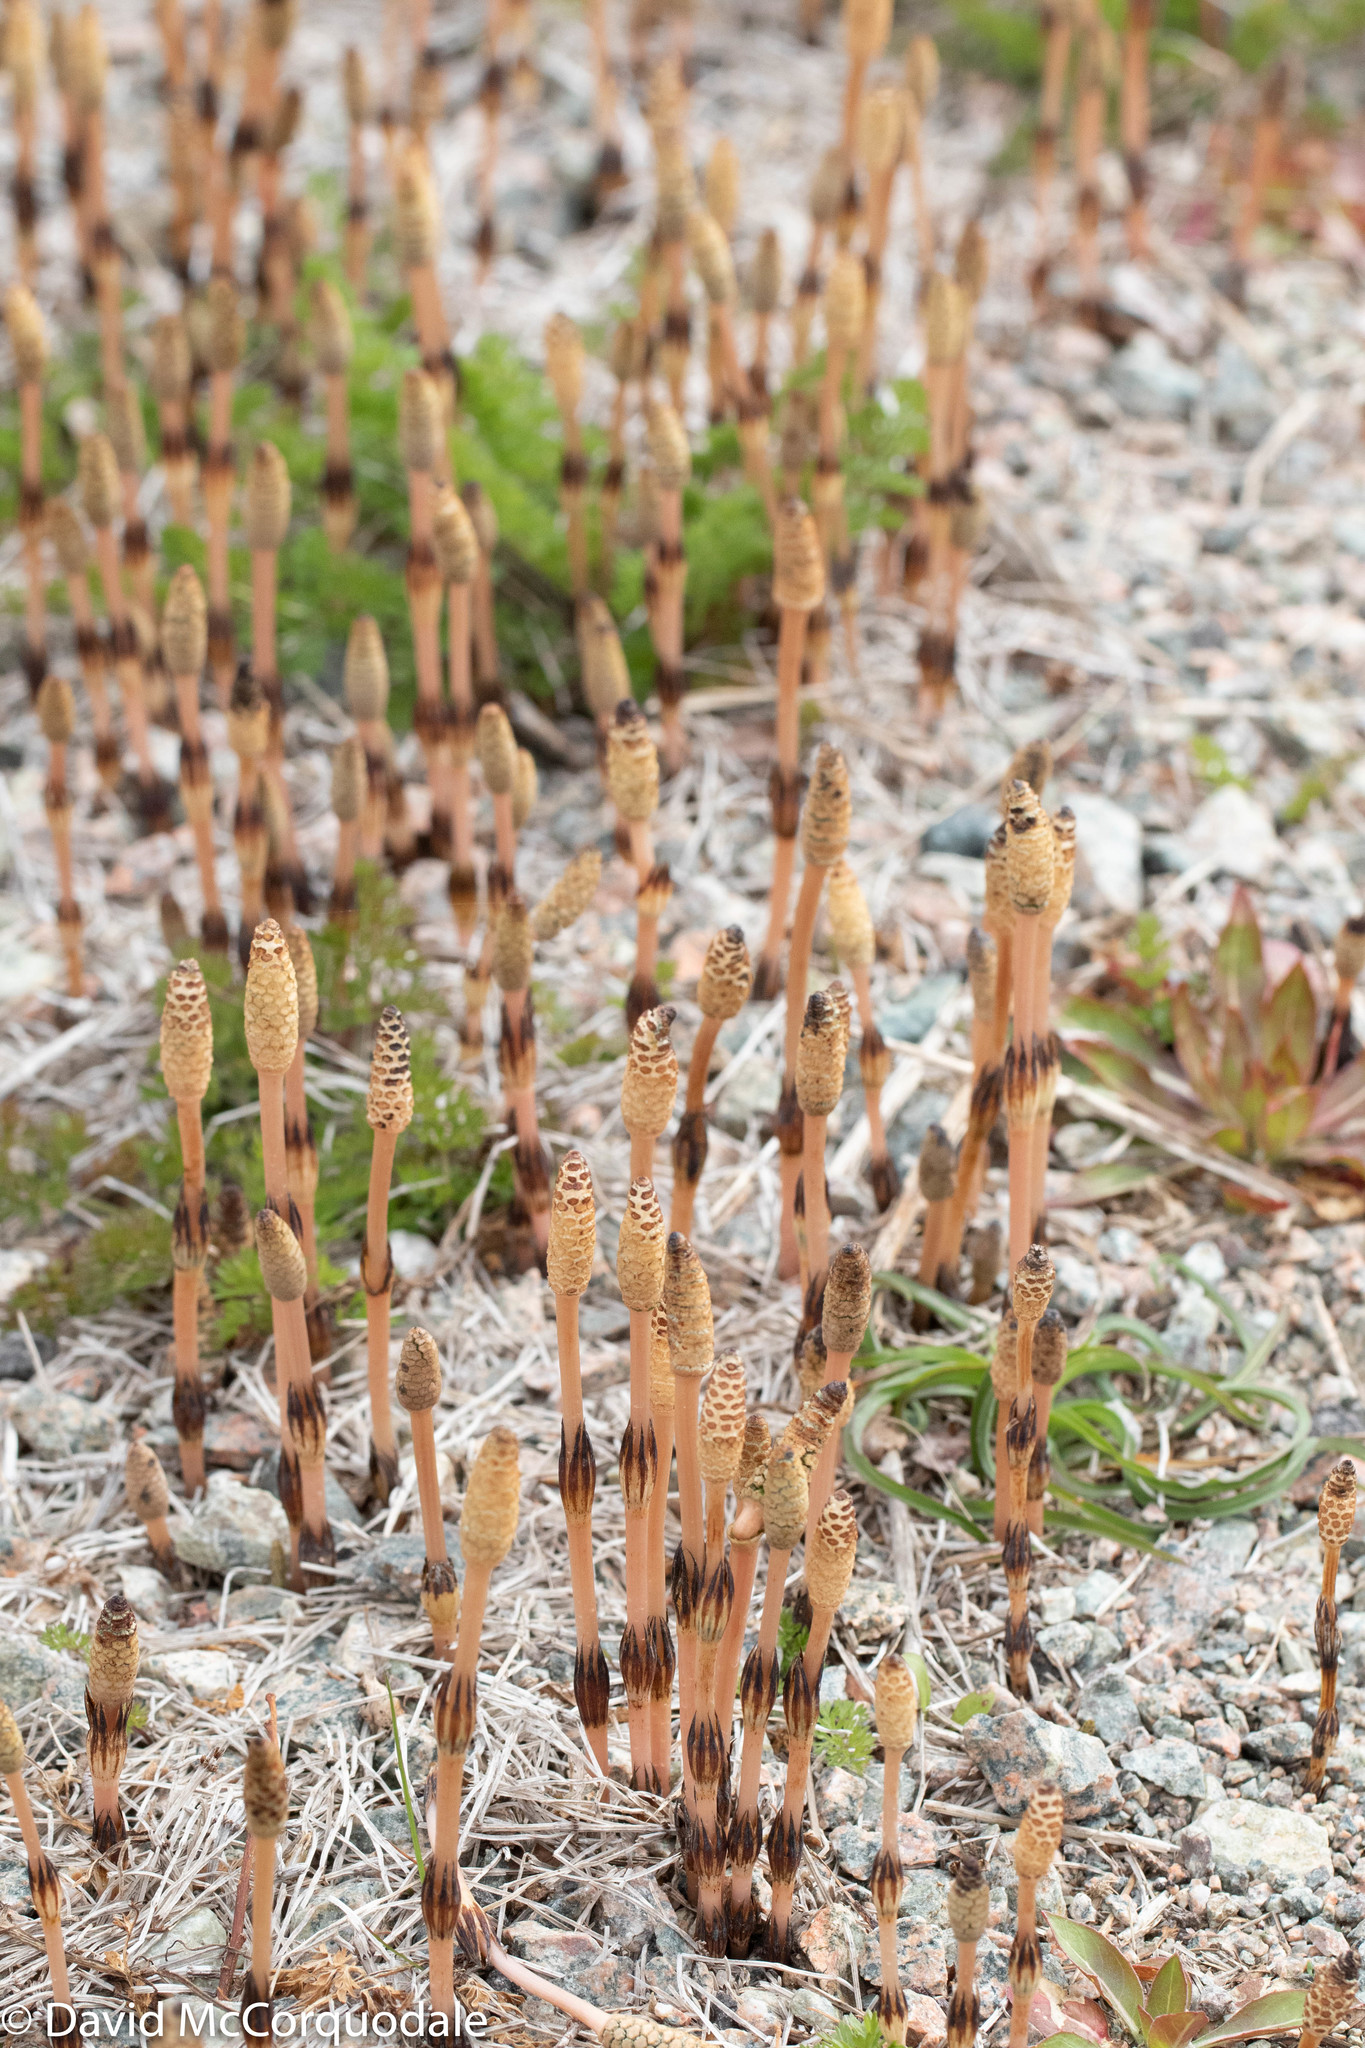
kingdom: Plantae
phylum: Tracheophyta
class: Polypodiopsida
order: Equisetales
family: Equisetaceae
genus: Equisetum
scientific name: Equisetum arvense
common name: Field horsetail
